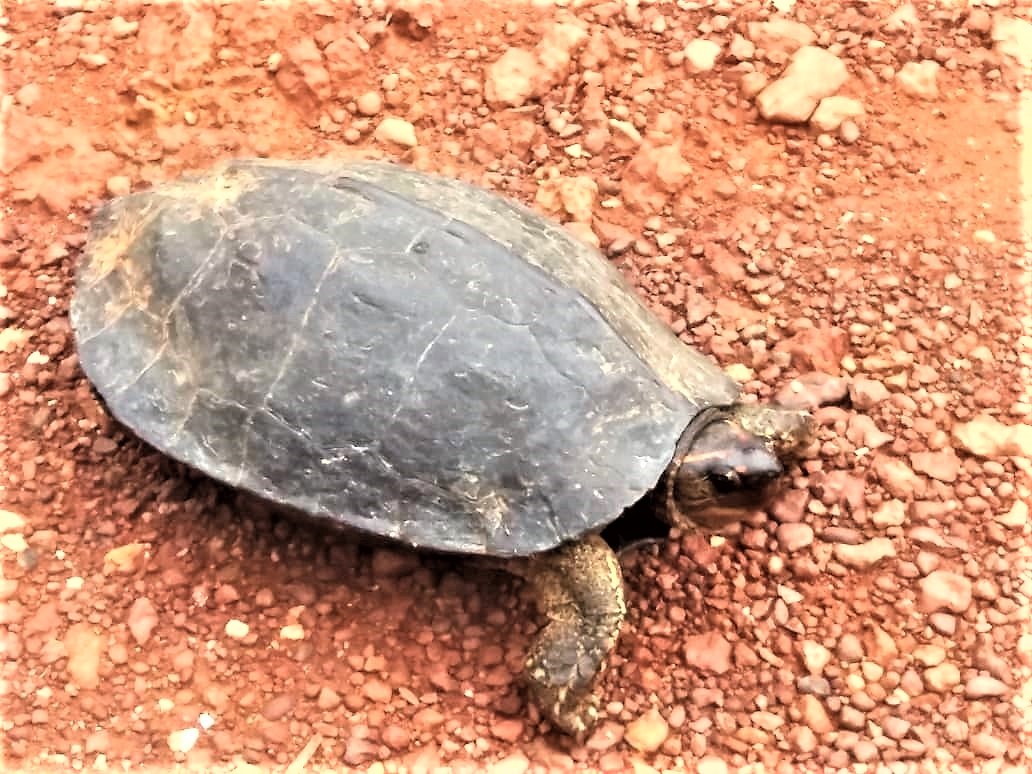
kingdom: Animalia
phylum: Chordata
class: Testudines
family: Geoemydidae
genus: Rhinoclemmys
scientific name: Rhinoclemmys punctularia
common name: Spot-legged turtle
